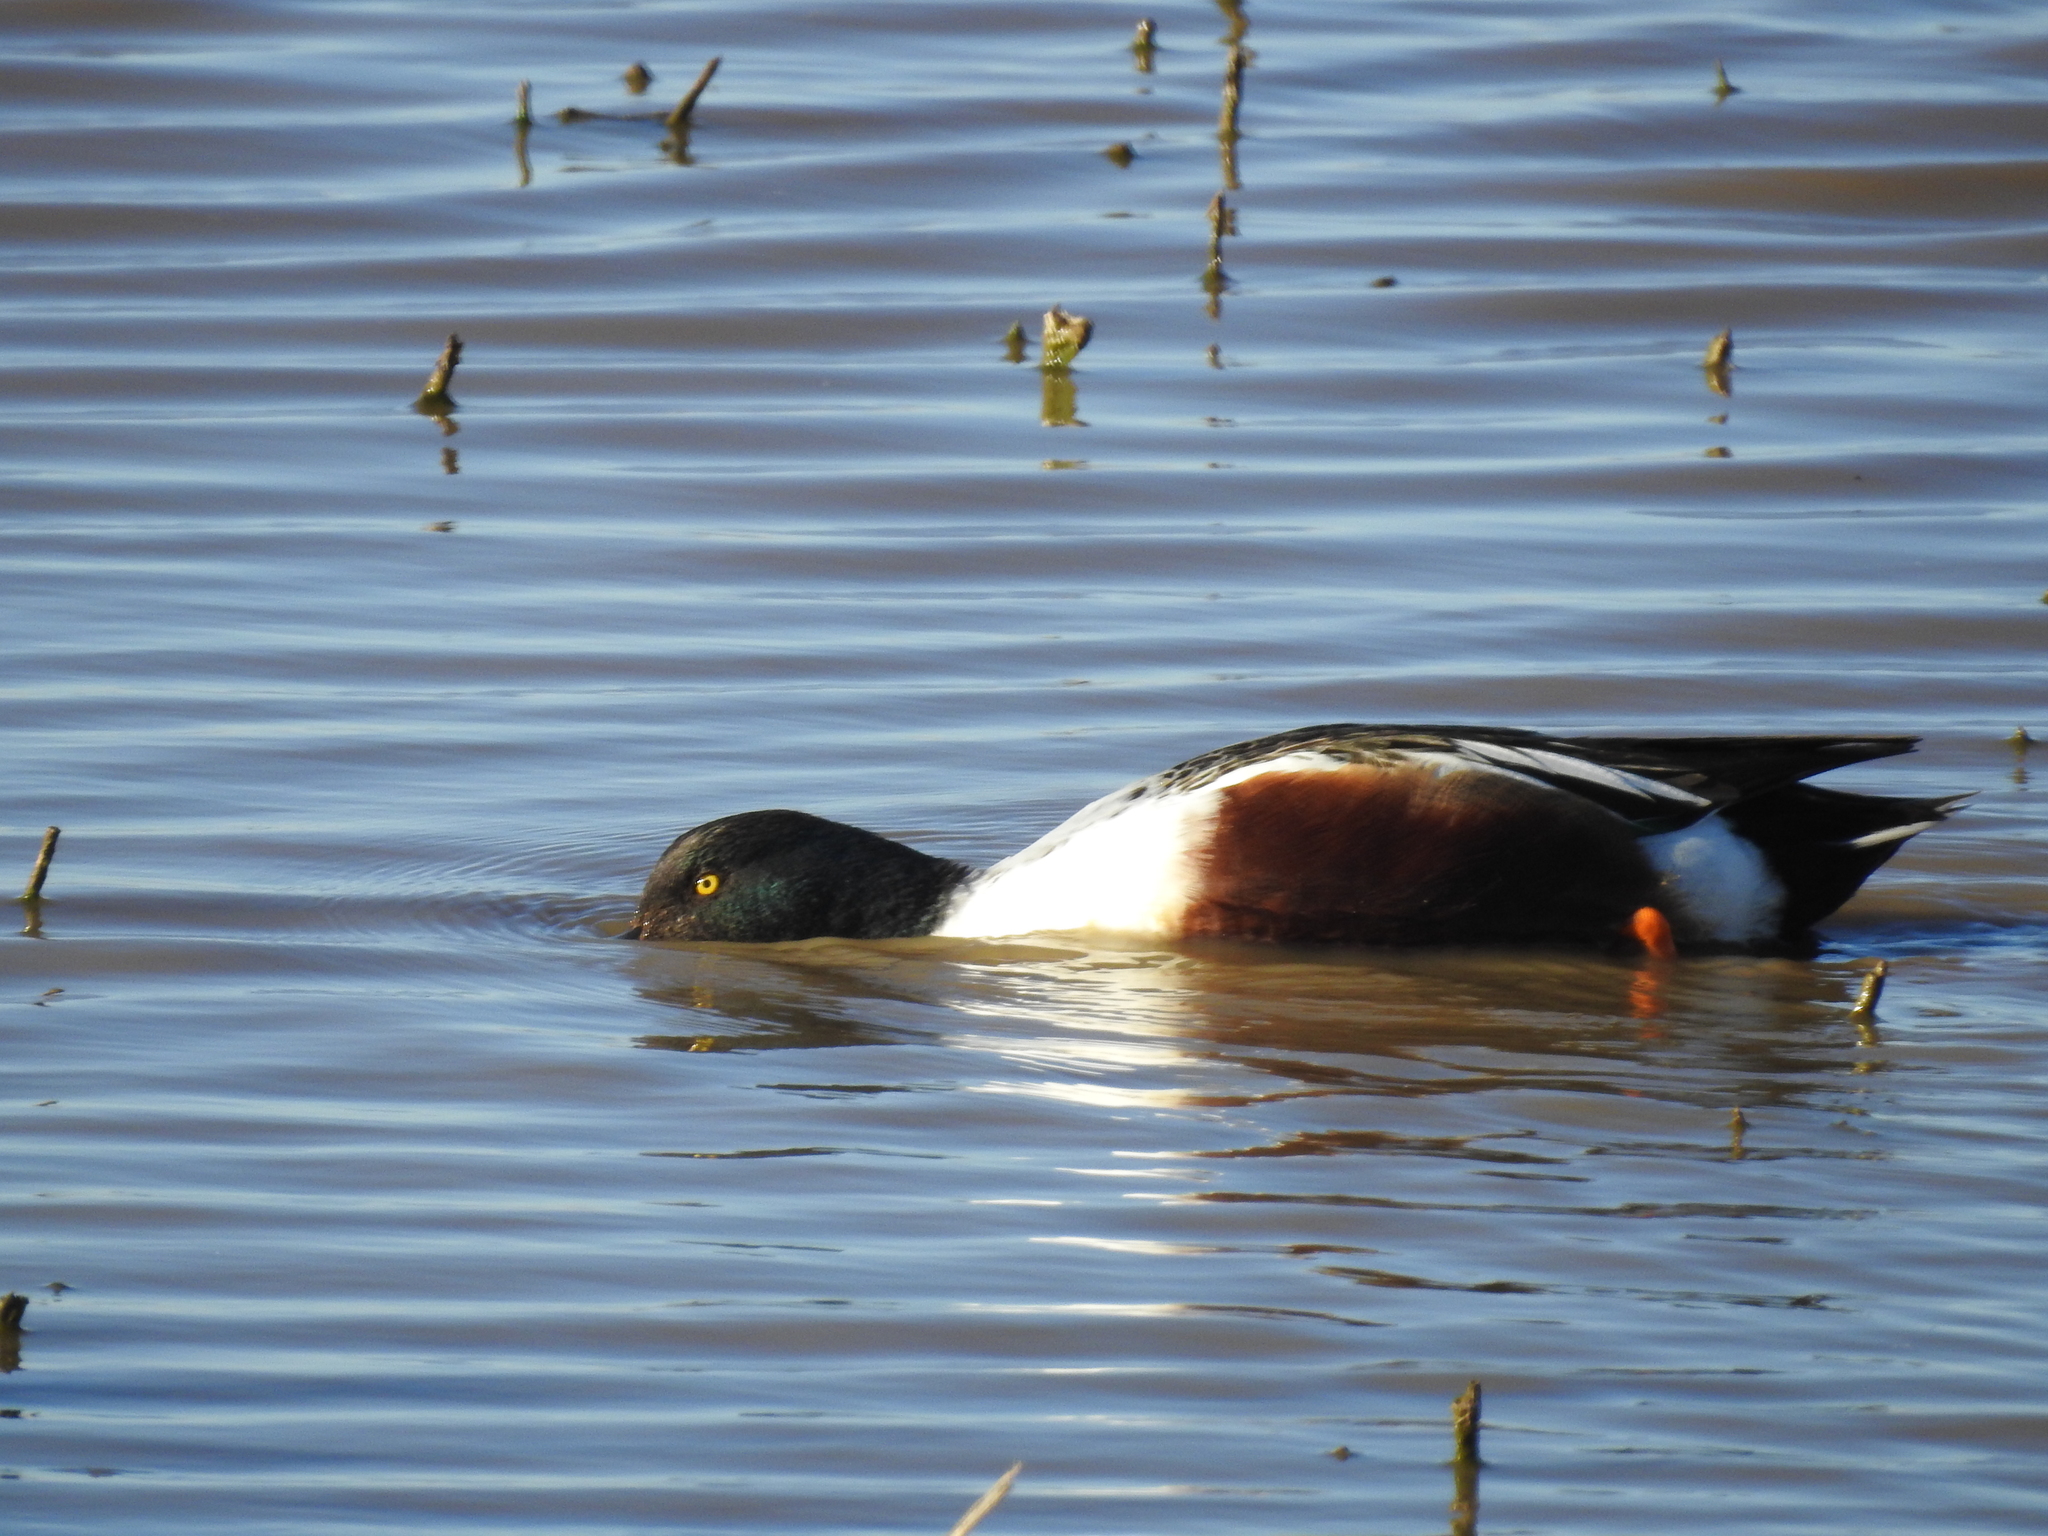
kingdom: Animalia
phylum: Chordata
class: Aves
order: Anseriformes
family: Anatidae
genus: Spatula
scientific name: Spatula clypeata
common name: Northern shoveler
